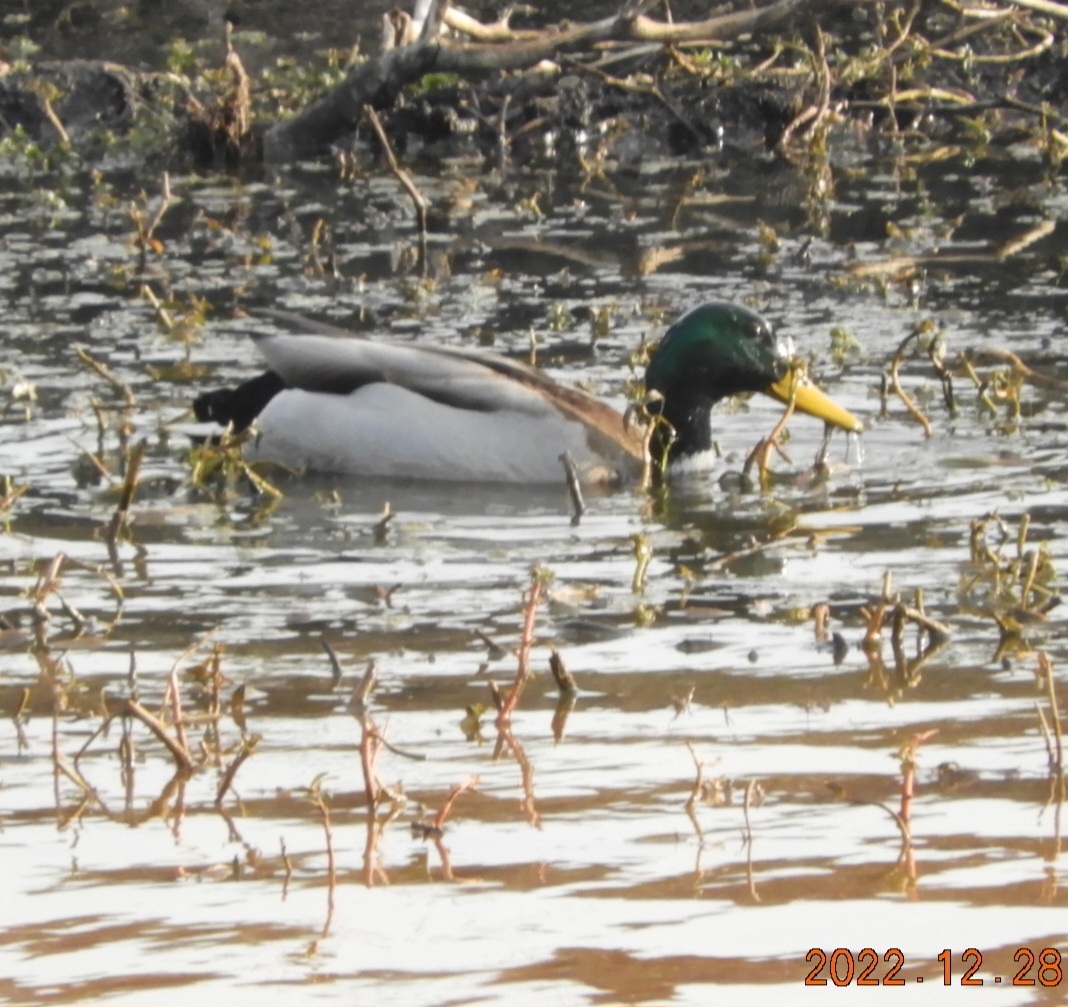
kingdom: Animalia
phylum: Chordata
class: Aves
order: Anseriformes
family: Anatidae
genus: Anas
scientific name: Anas platyrhynchos
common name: Mallard
